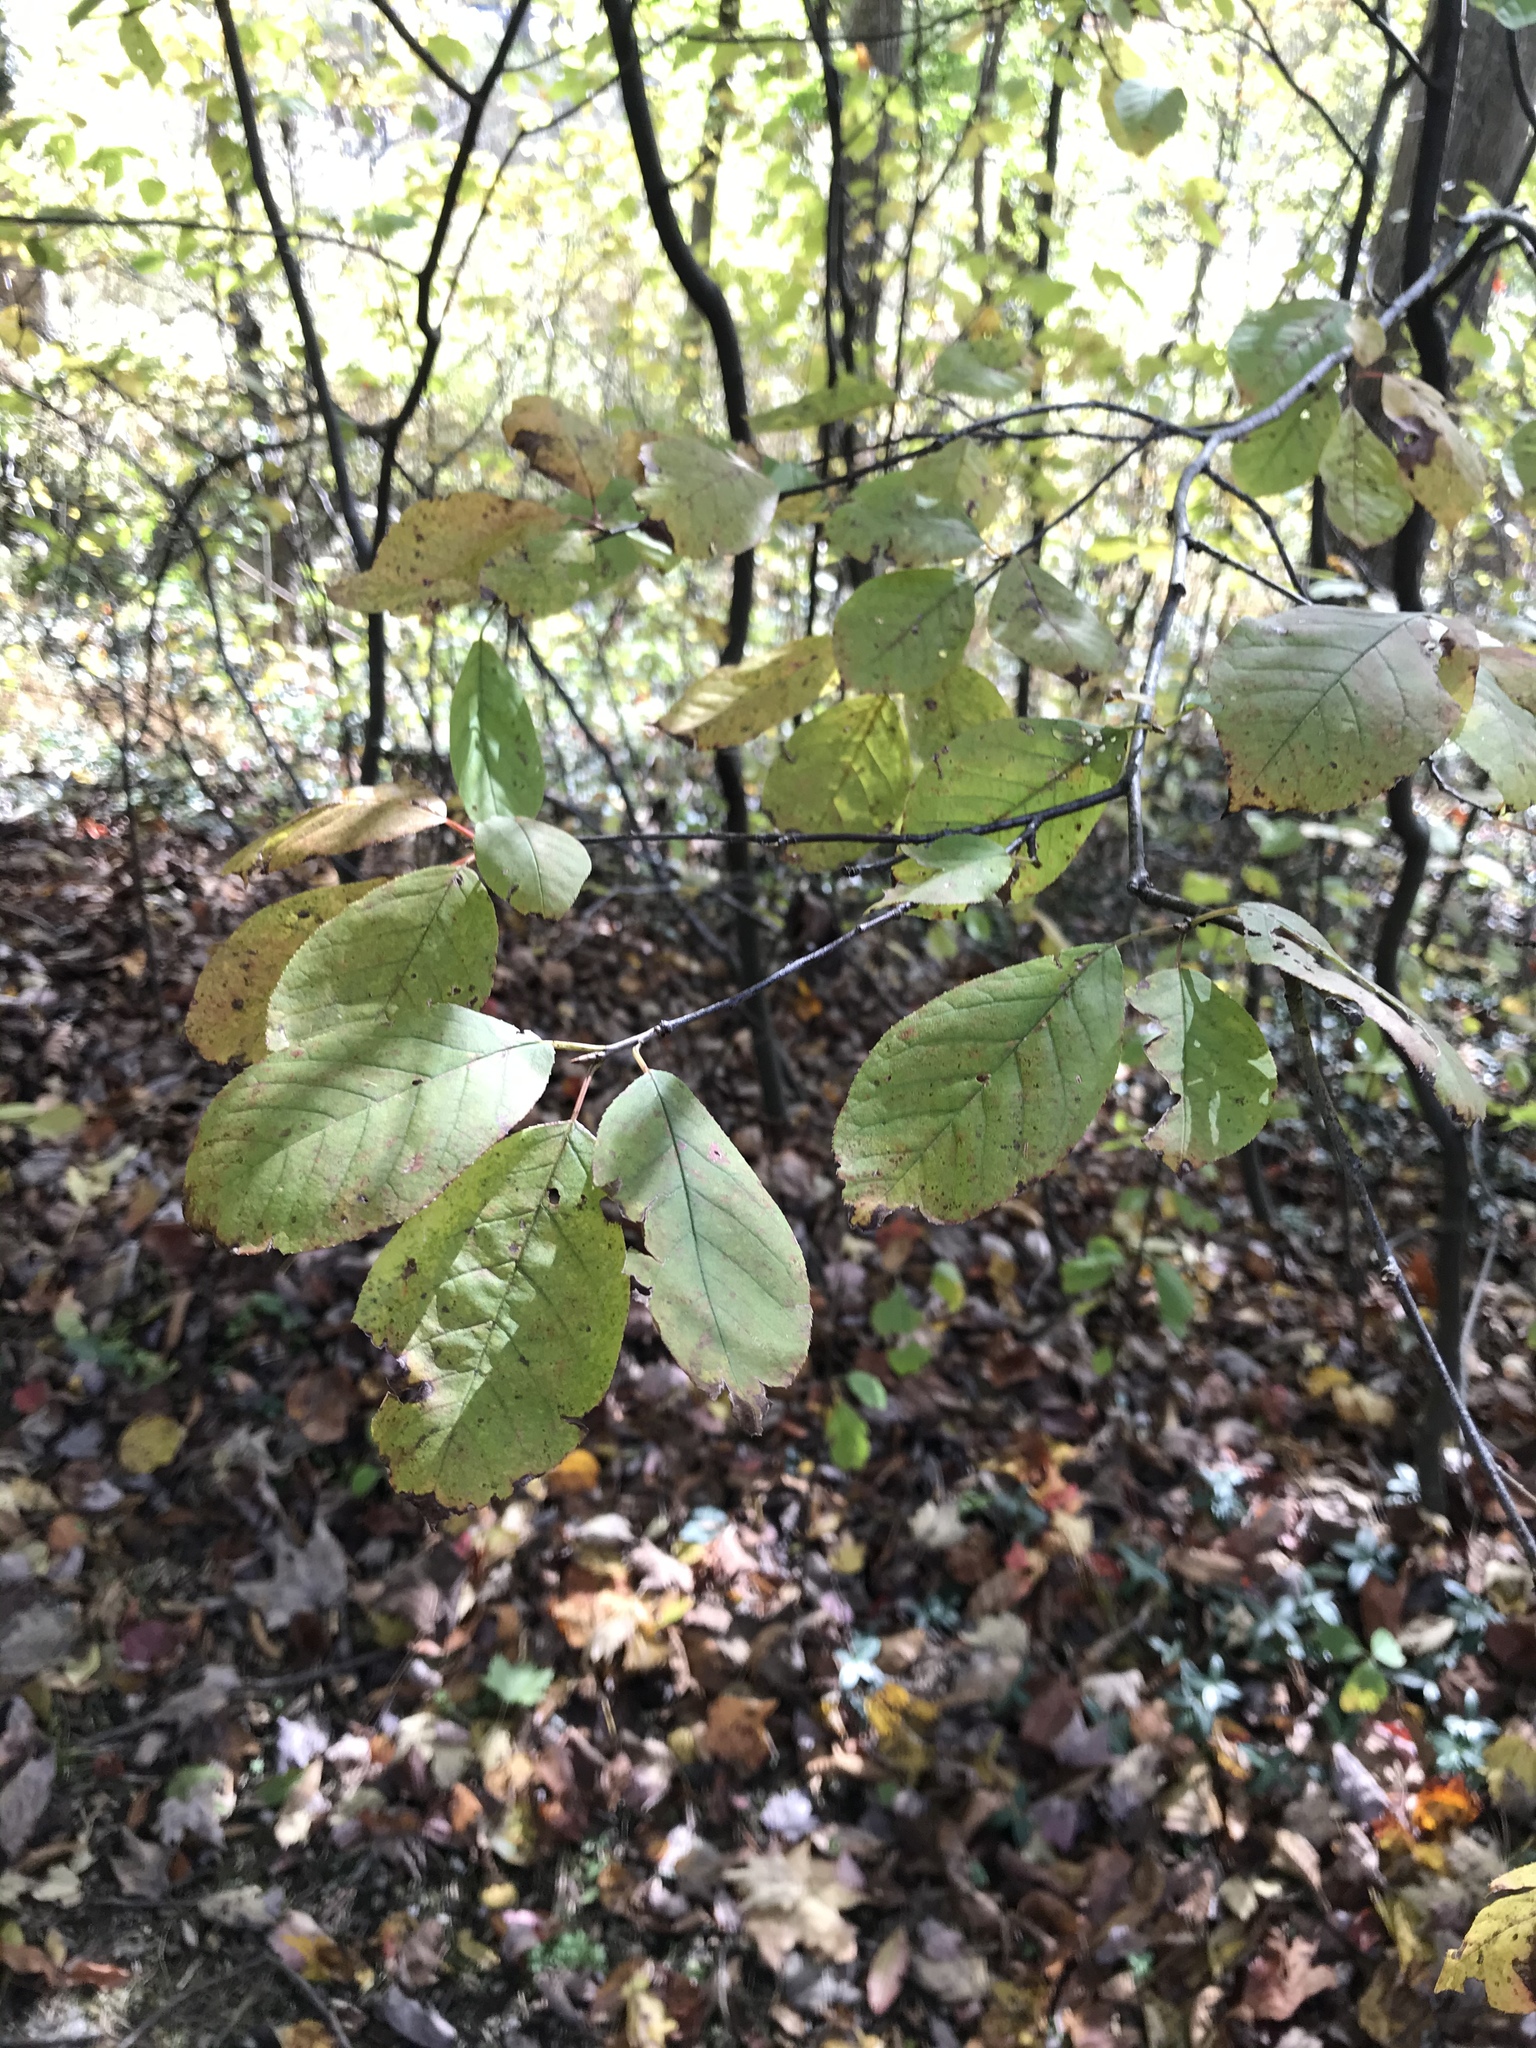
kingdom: Plantae
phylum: Tracheophyta
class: Magnoliopsida
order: Rosales
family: Rosaceae
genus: Prunus
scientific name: Prunus virginiana
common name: Chokecherry
